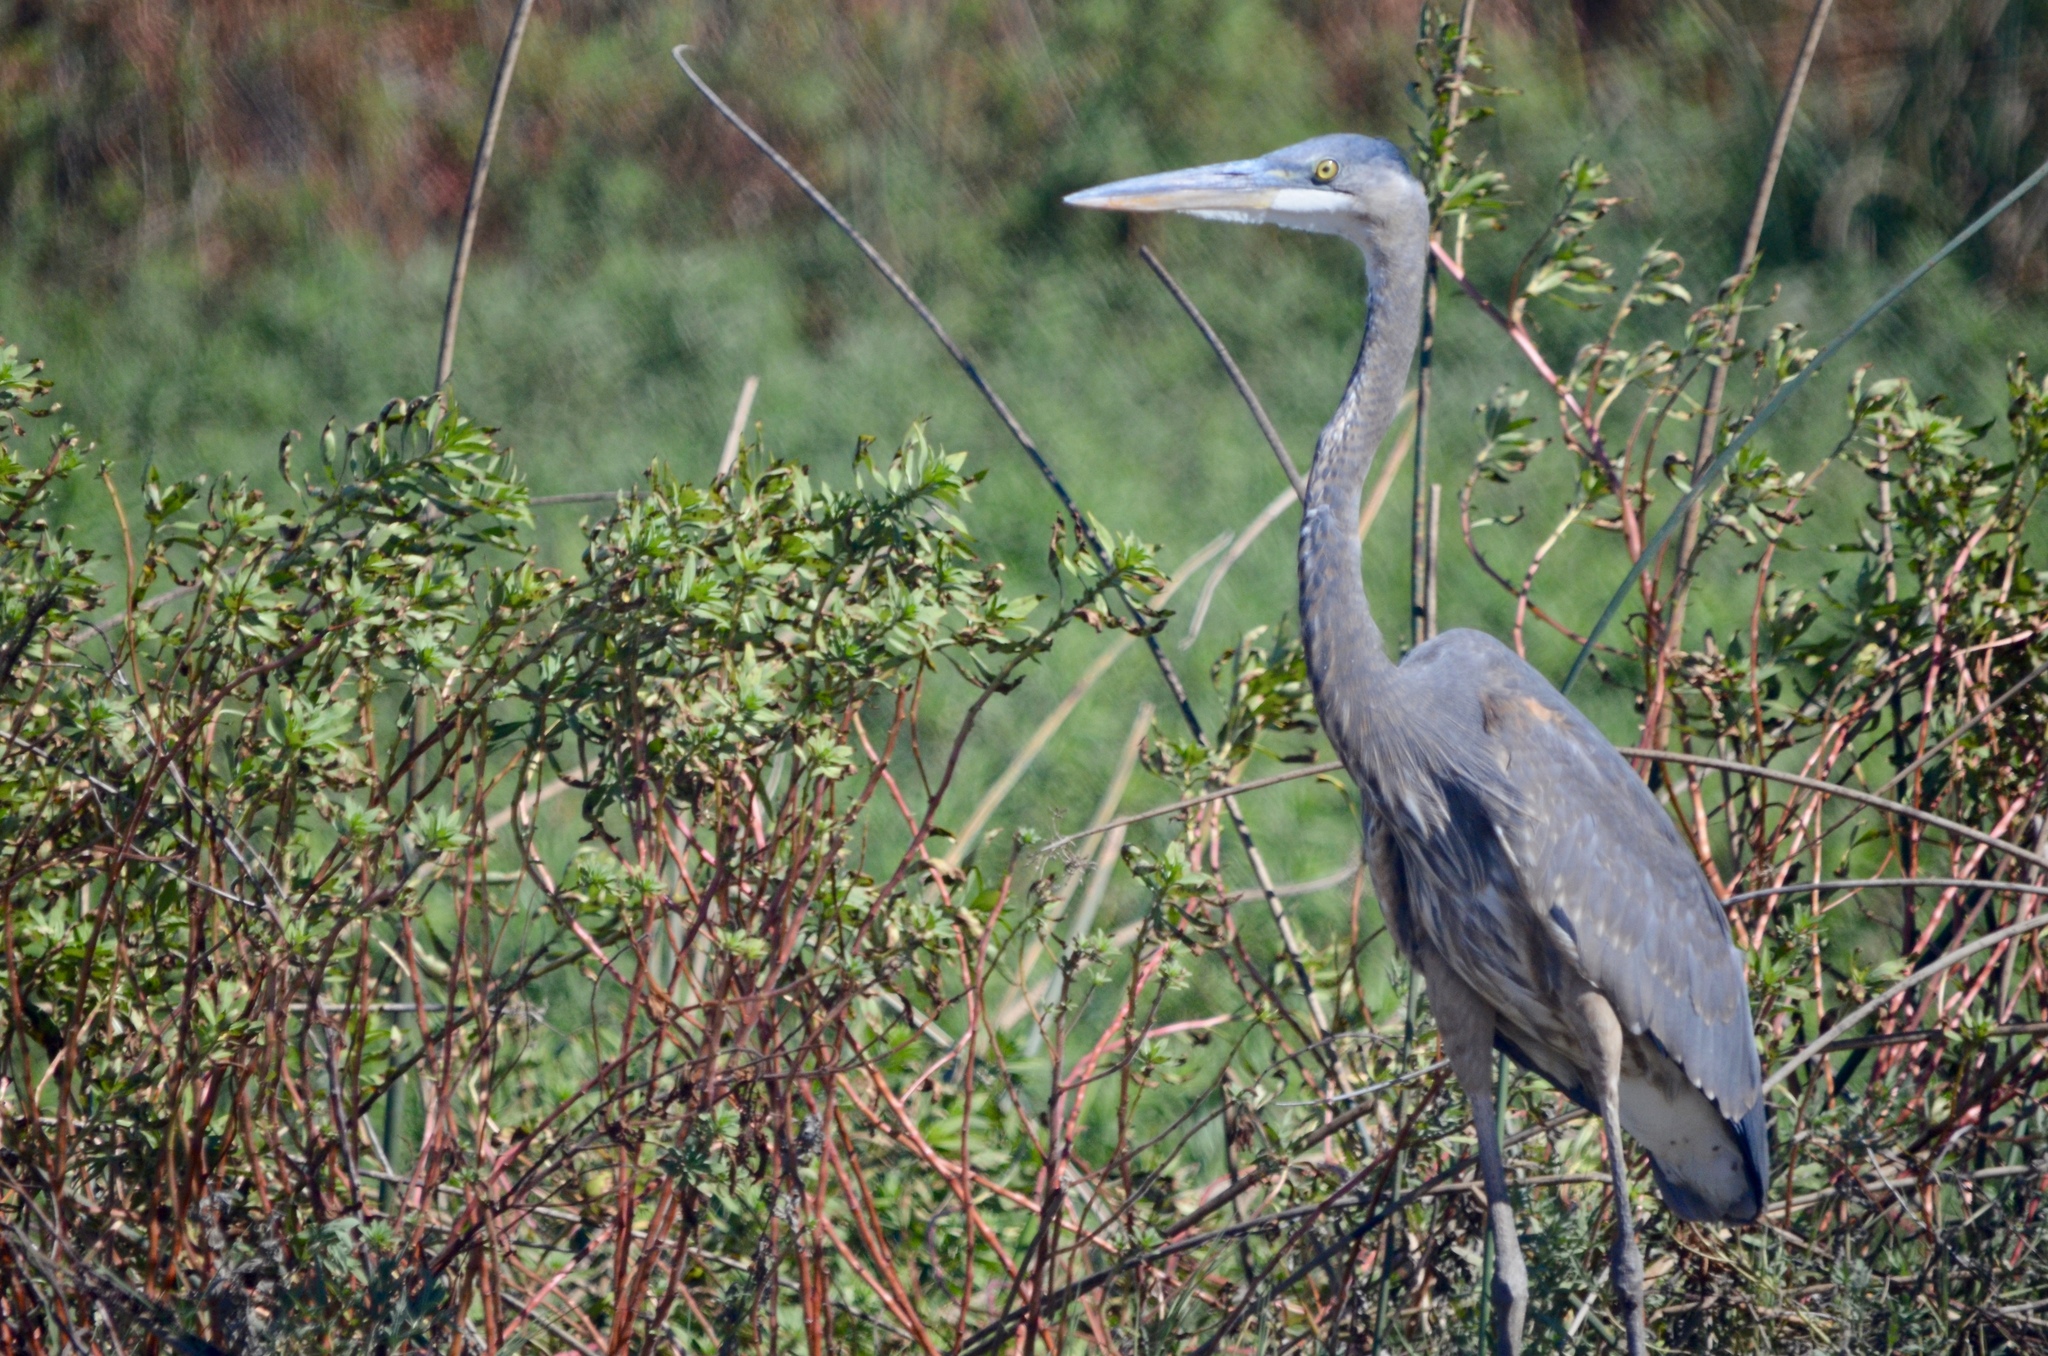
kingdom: Animalia
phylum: Chordata
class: Aves
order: Pelecaniformes
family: Ardeidae
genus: Ardea
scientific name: Ardea herodias
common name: Great blue heron
